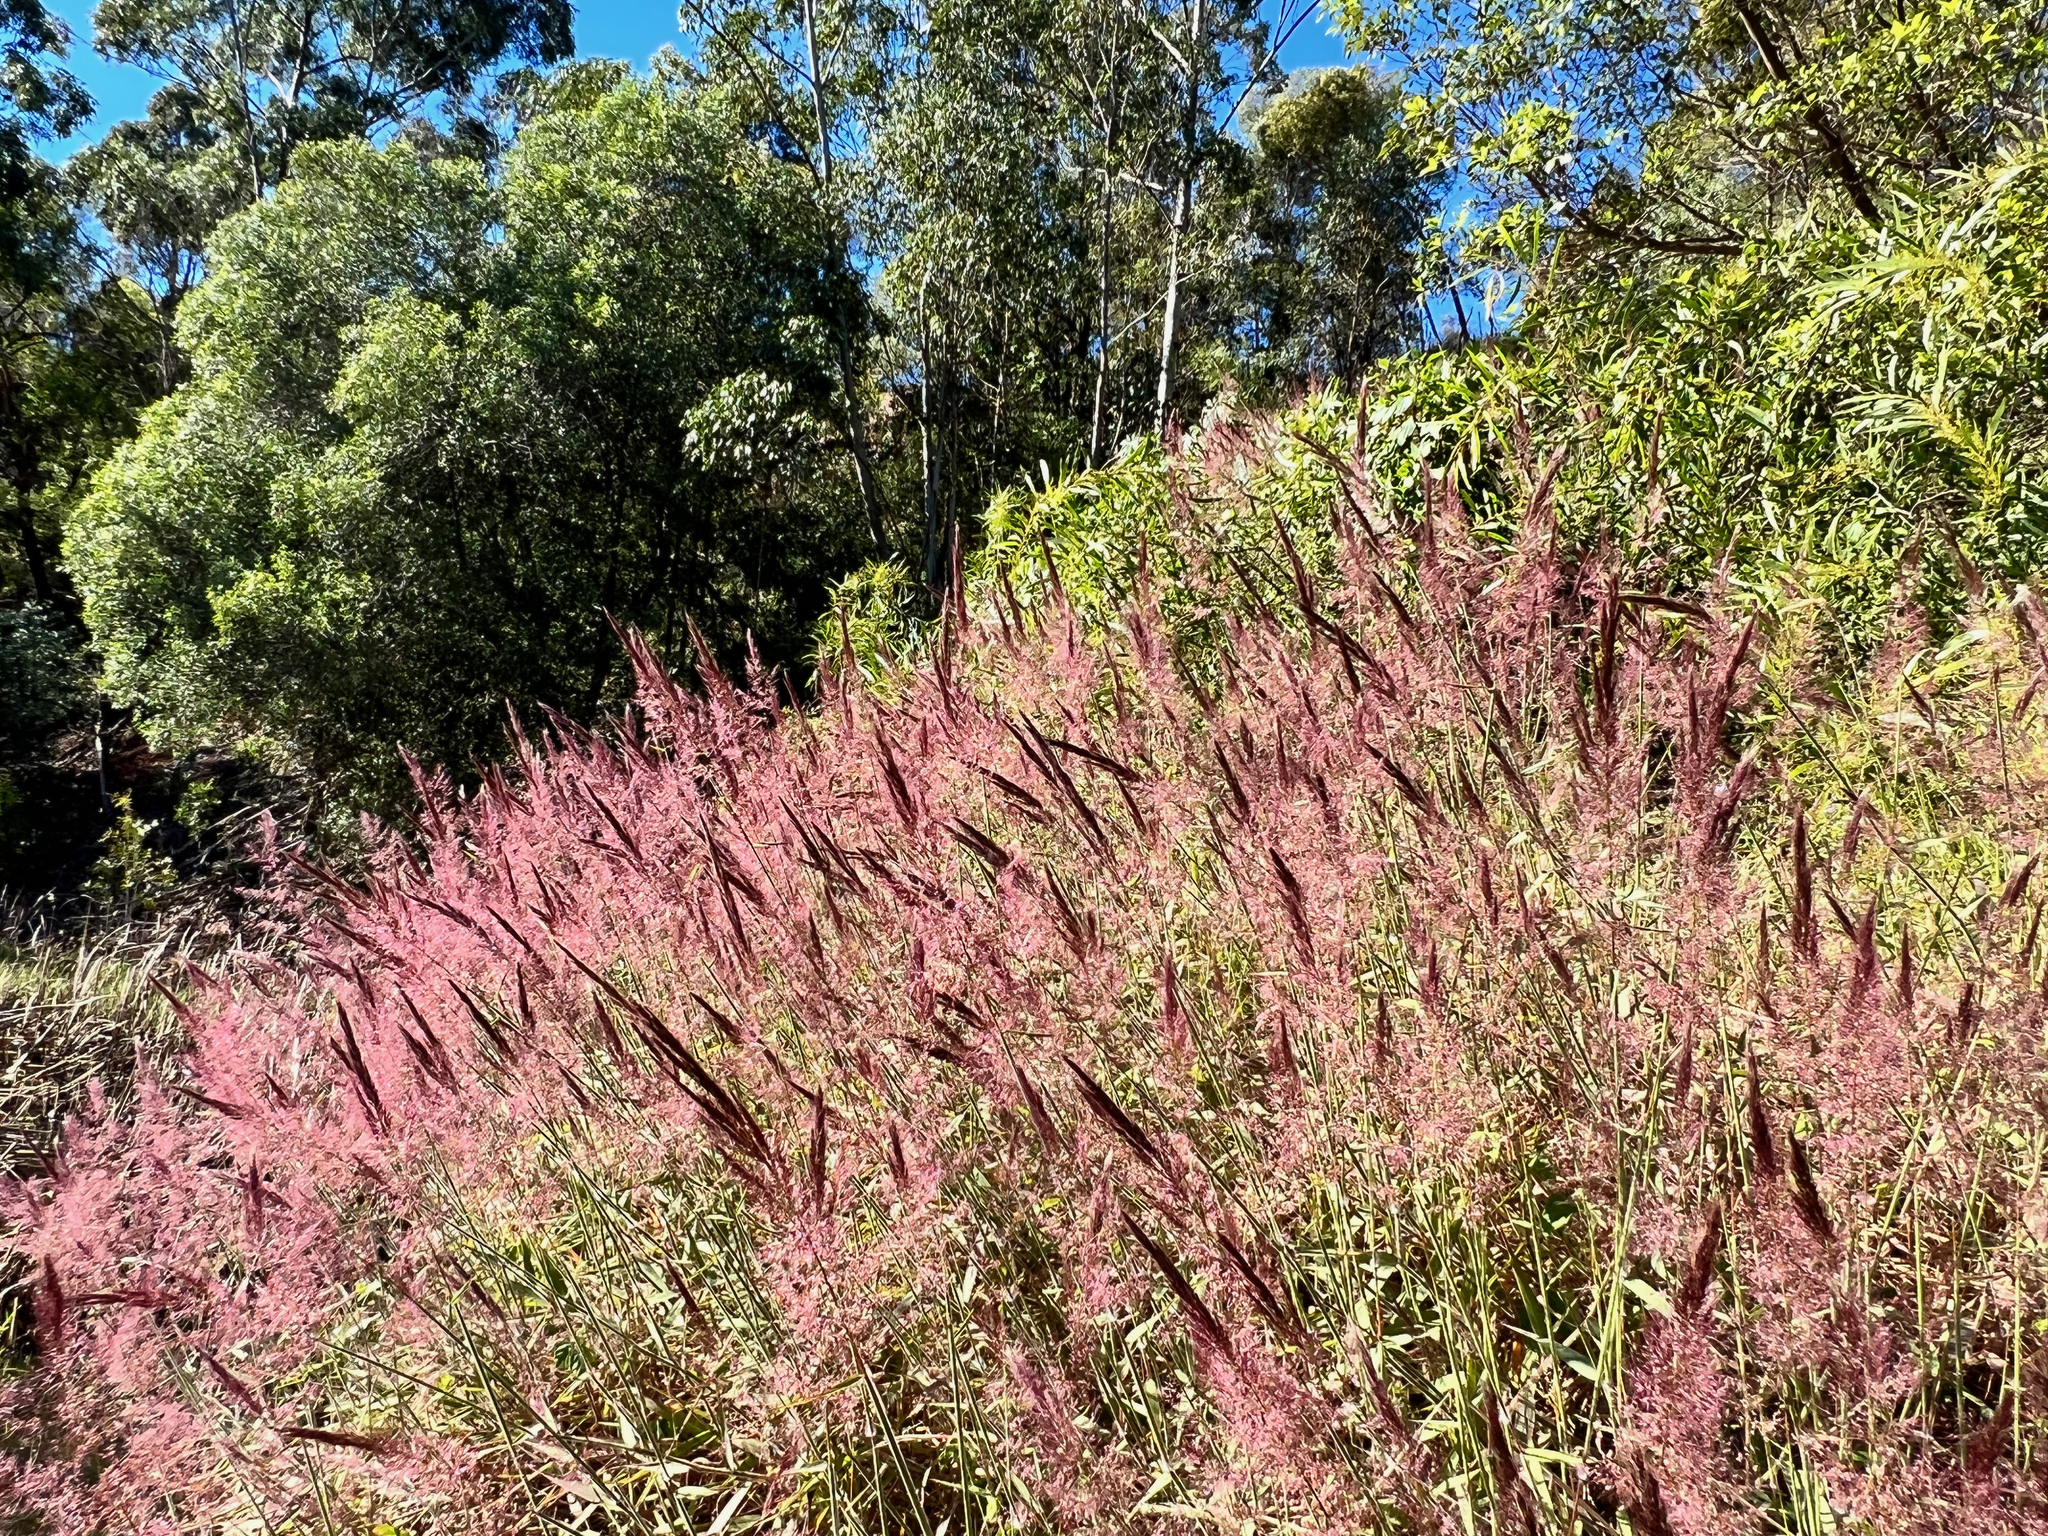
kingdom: Plantae
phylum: Tracheophyta
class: Liliopsida
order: Poales
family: Poaceae
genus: Melinis
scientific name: Melinis minutiflora
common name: Molassesgrass
